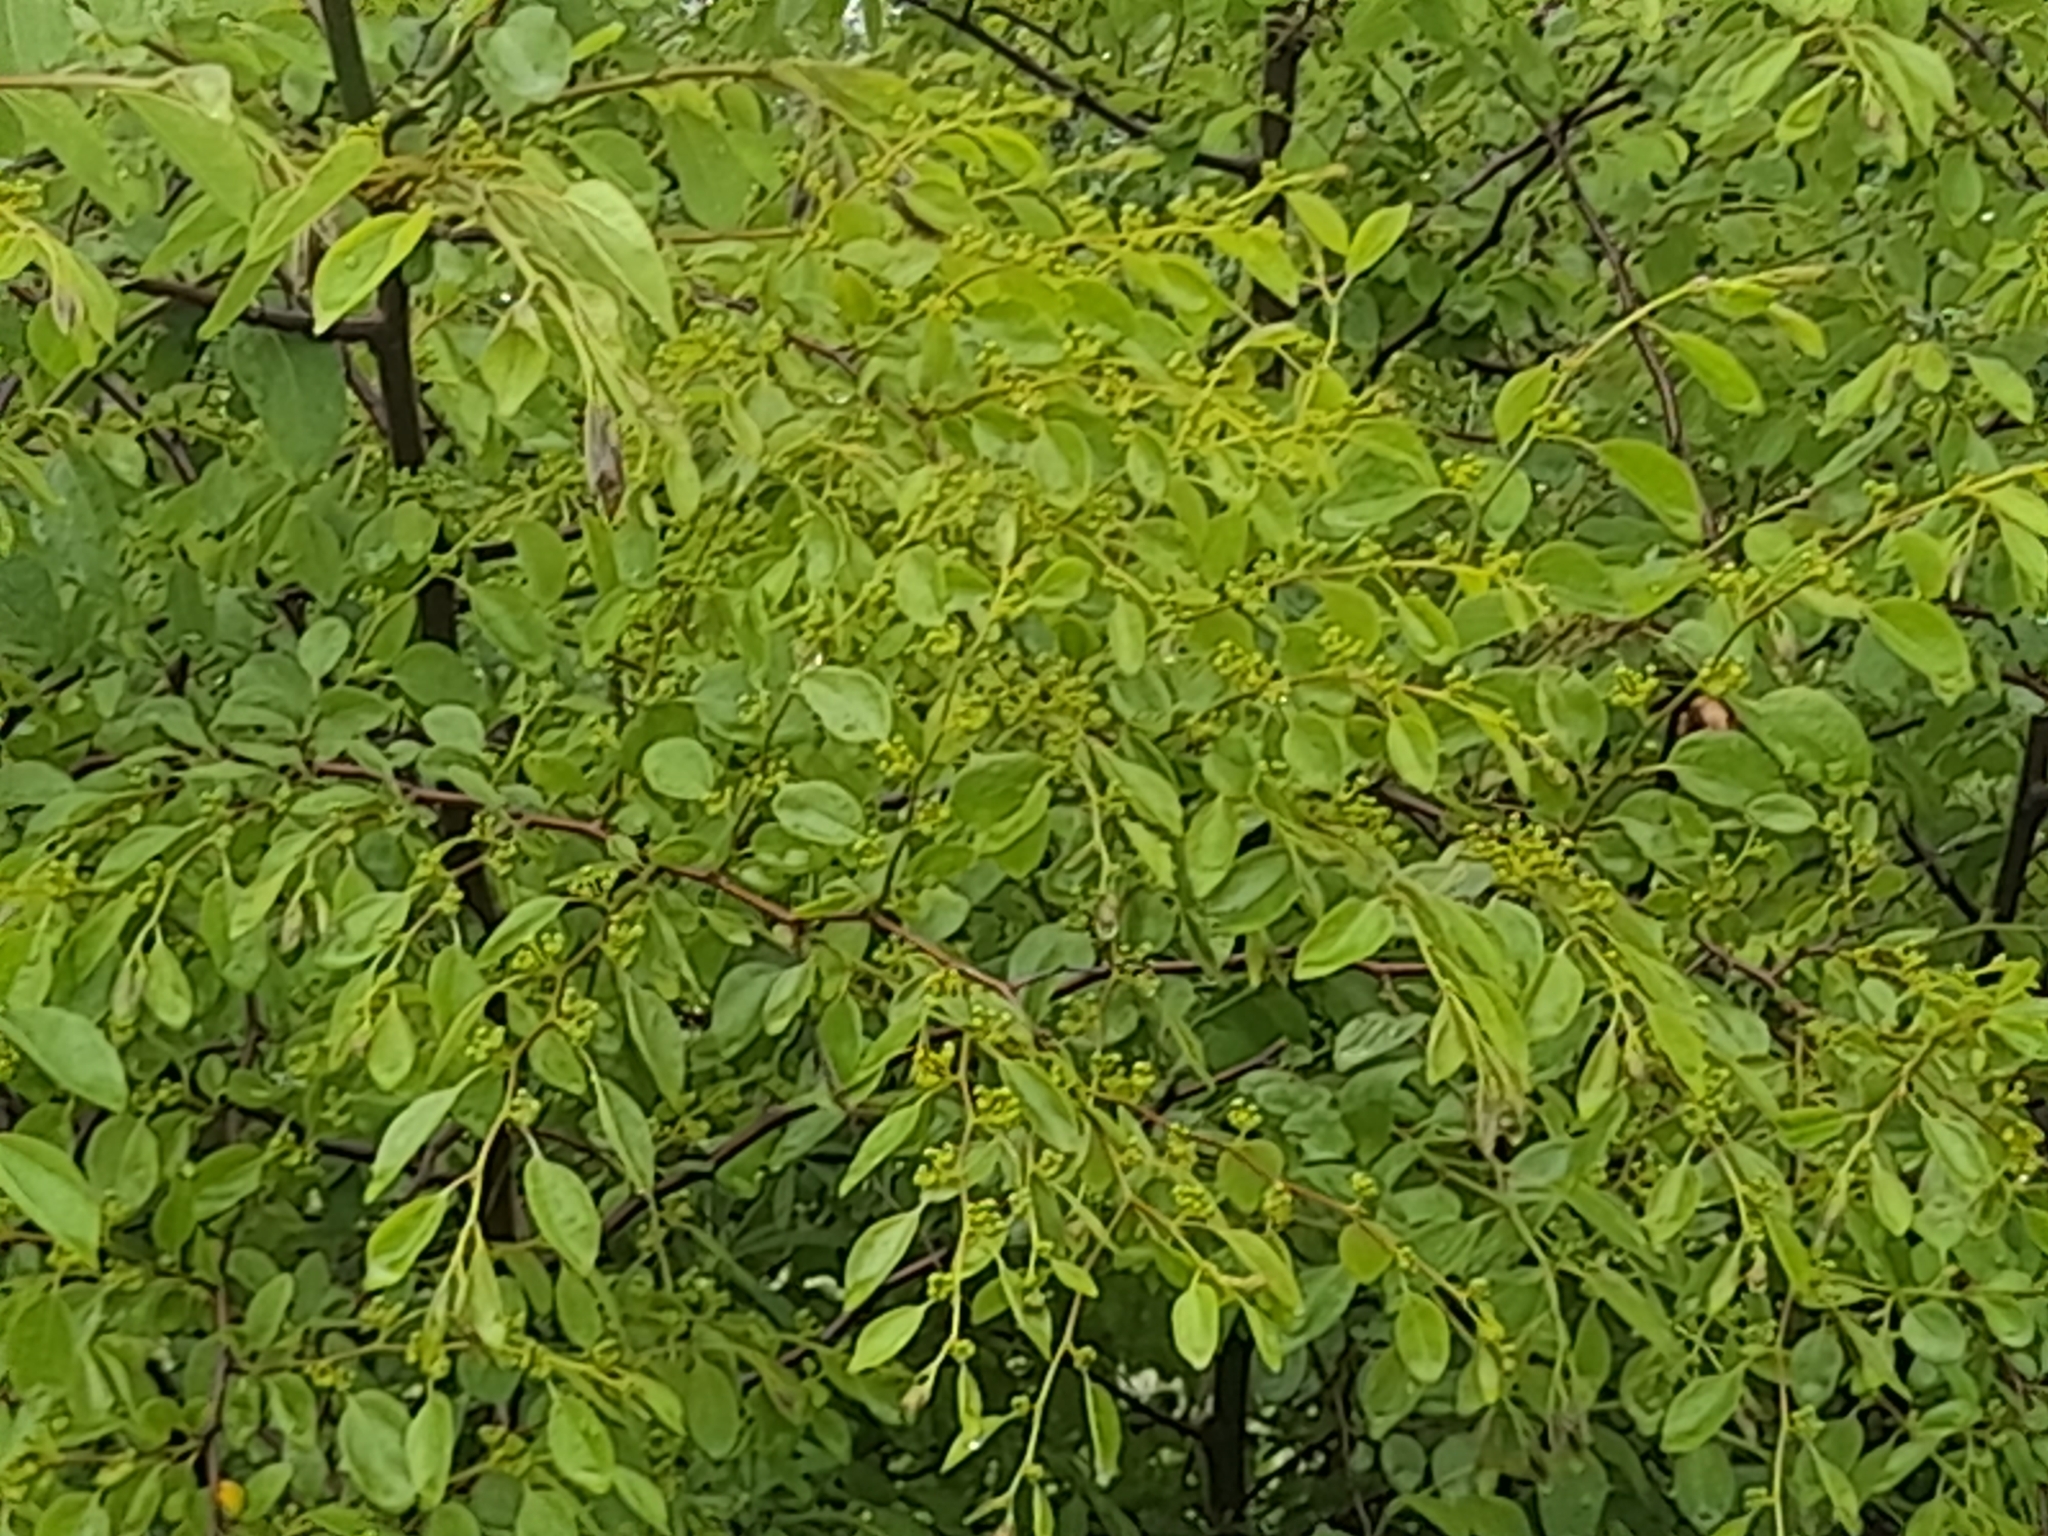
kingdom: Plantae
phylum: Tracheophyta
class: Magnoliopsida
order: Rosales
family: Rhamnaceae
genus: Paliurus
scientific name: Paliurus spina-christi
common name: Jeruselem thorn
